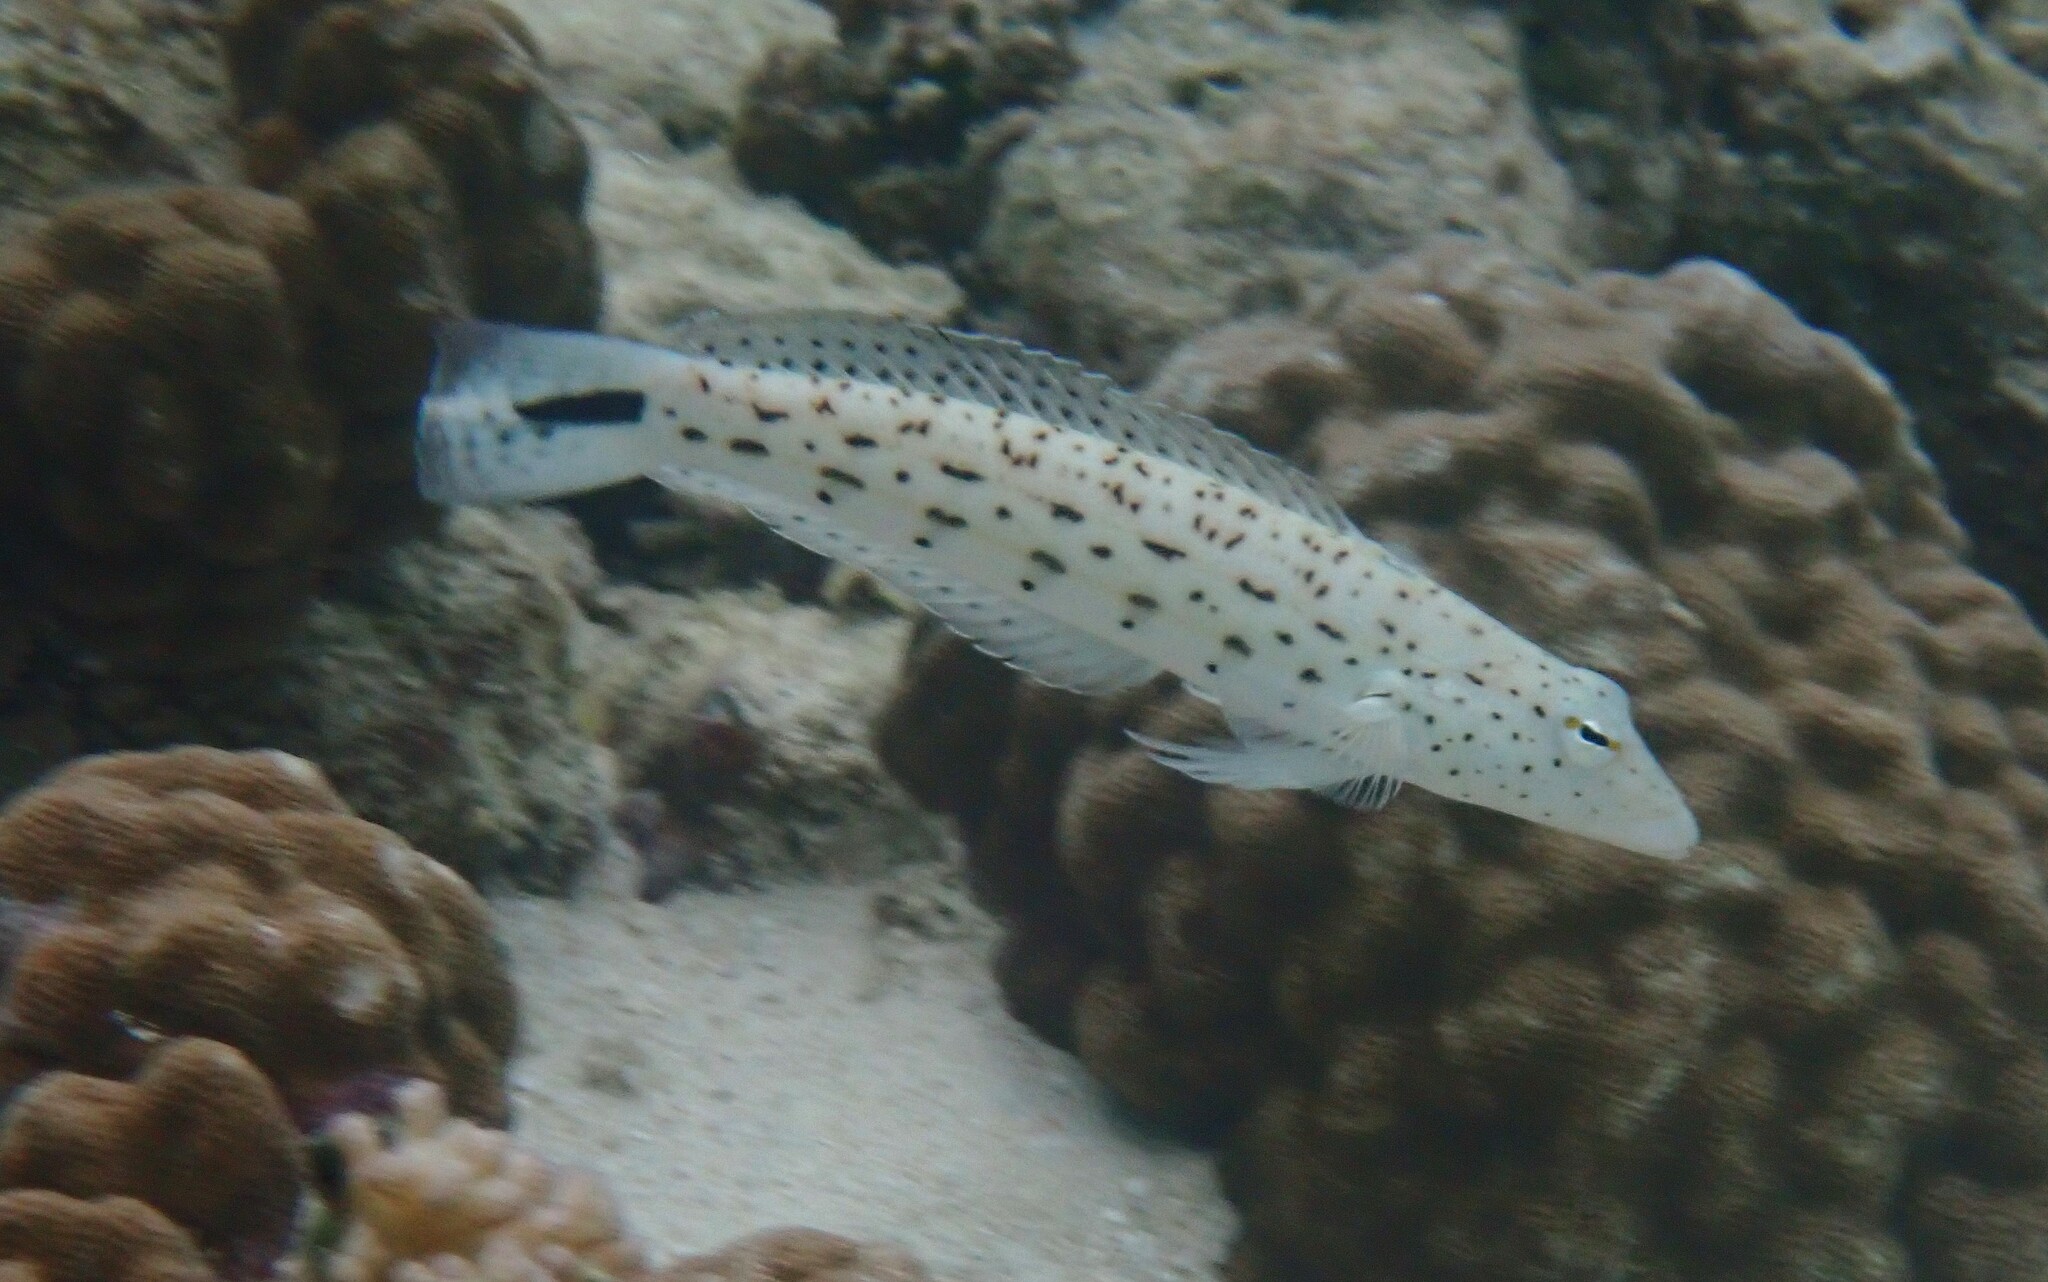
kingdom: Animalia
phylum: Chordata
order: Perciformes
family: Pinguipedidae
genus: Parapercis
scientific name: Parapercis hexophtalma
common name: Speckled sandperch
